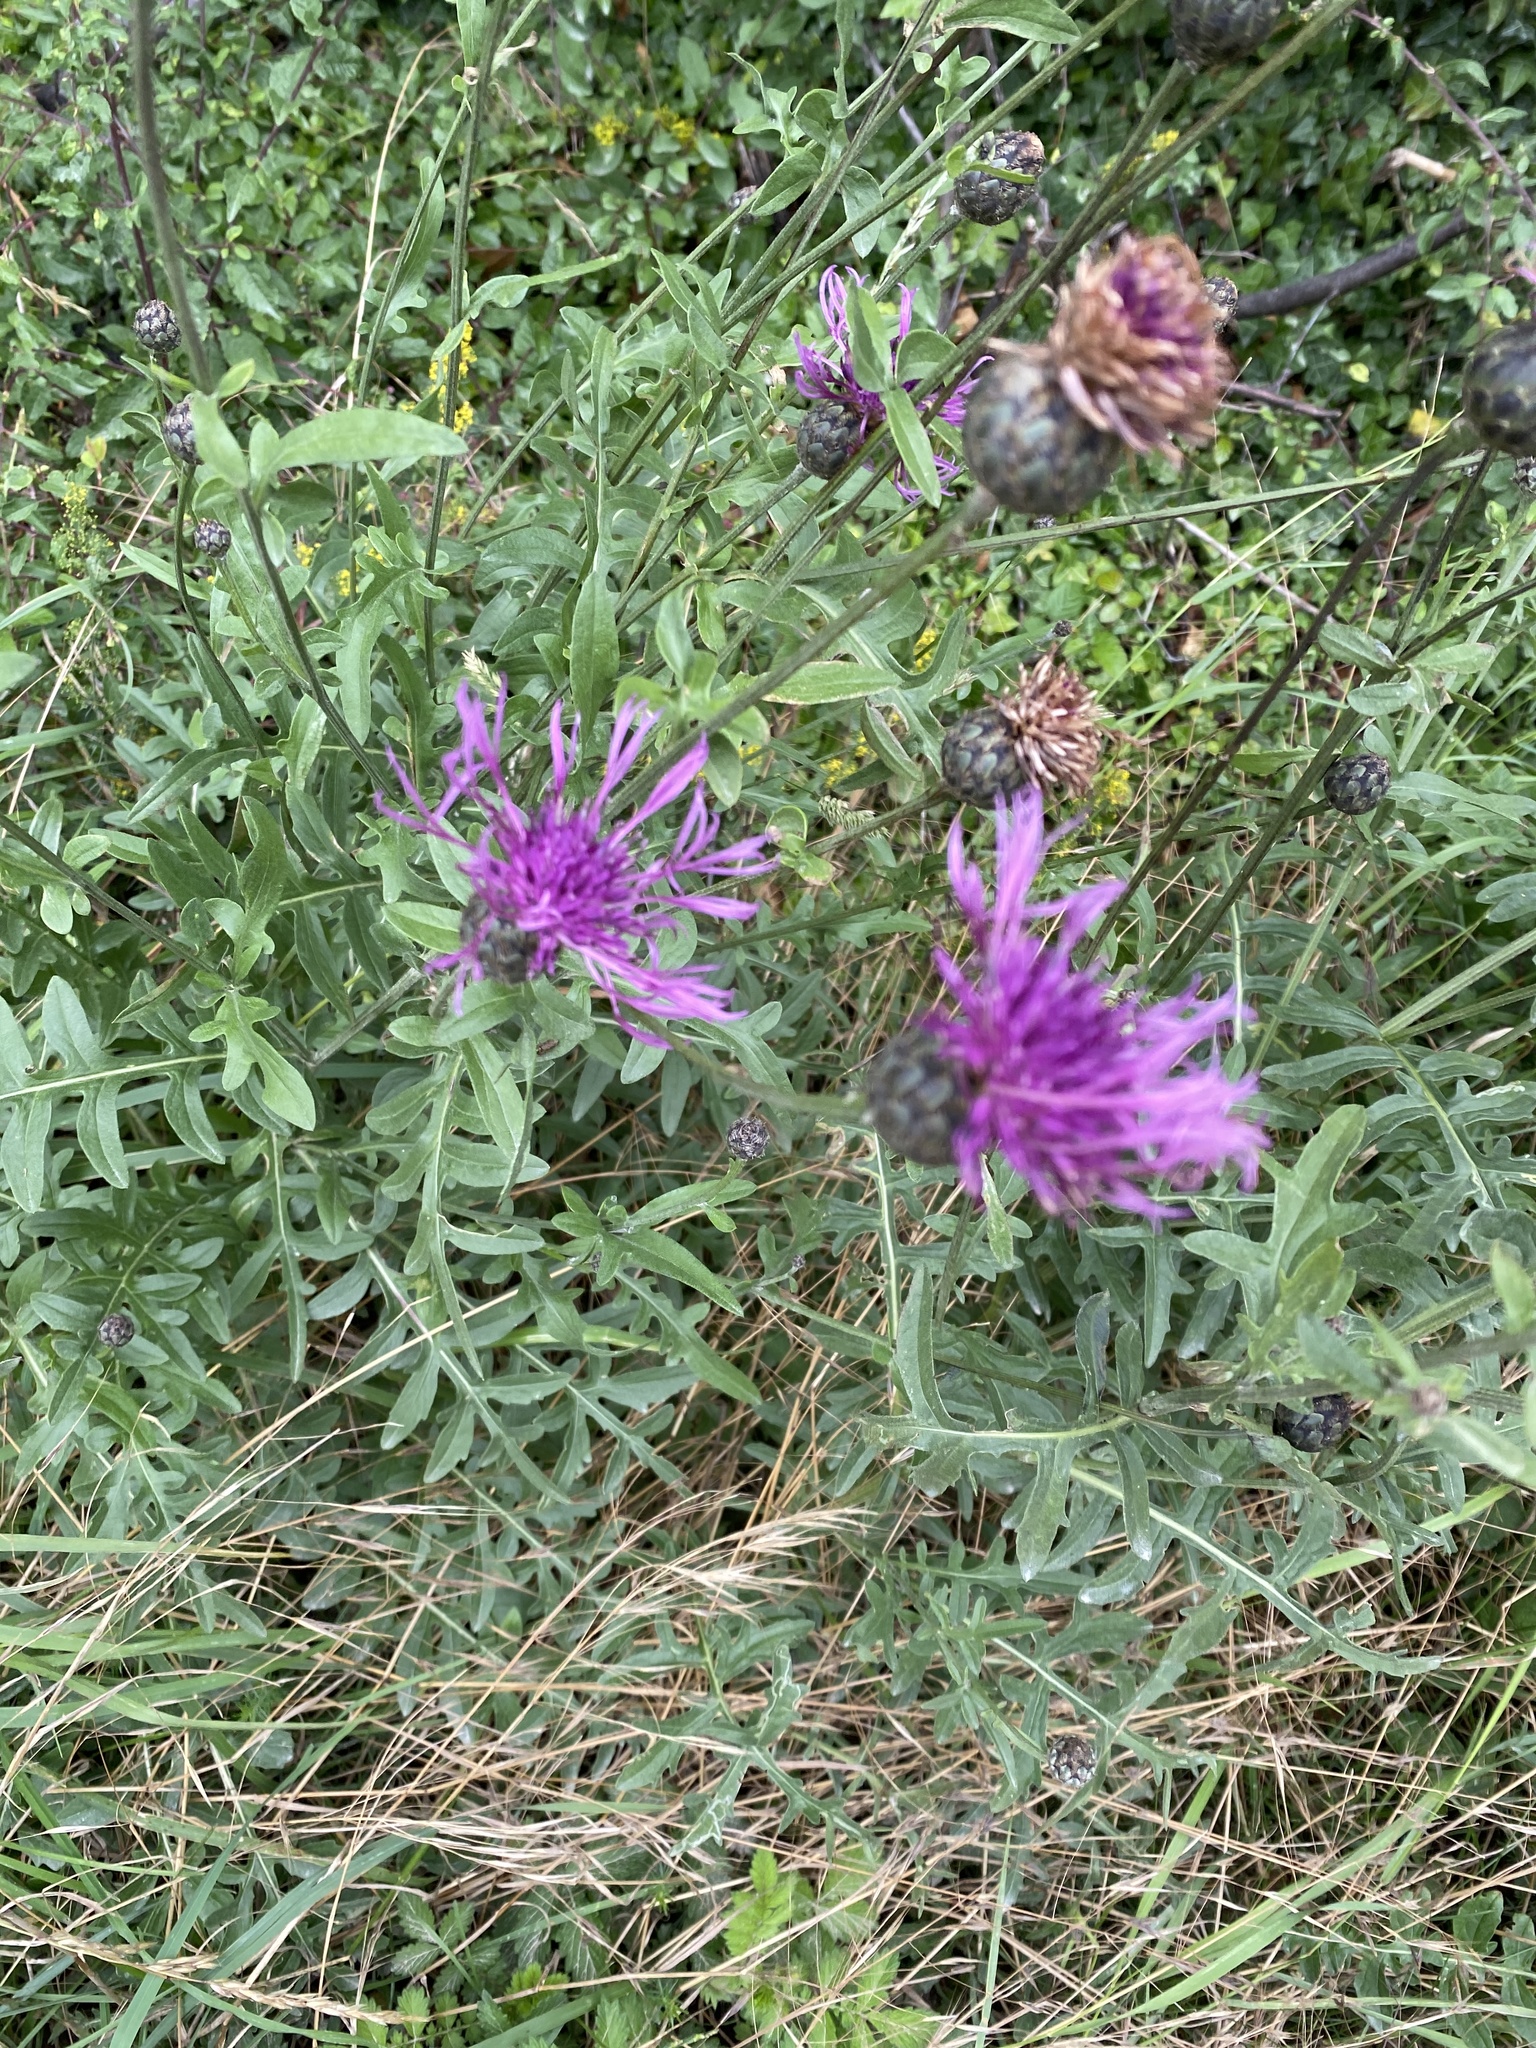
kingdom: Plantae
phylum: Tracheophyta
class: Magnoliopsida
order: Asterales
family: Asteraceae
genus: Centaurea
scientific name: Centaurea scabiosa
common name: Greater knapweed
